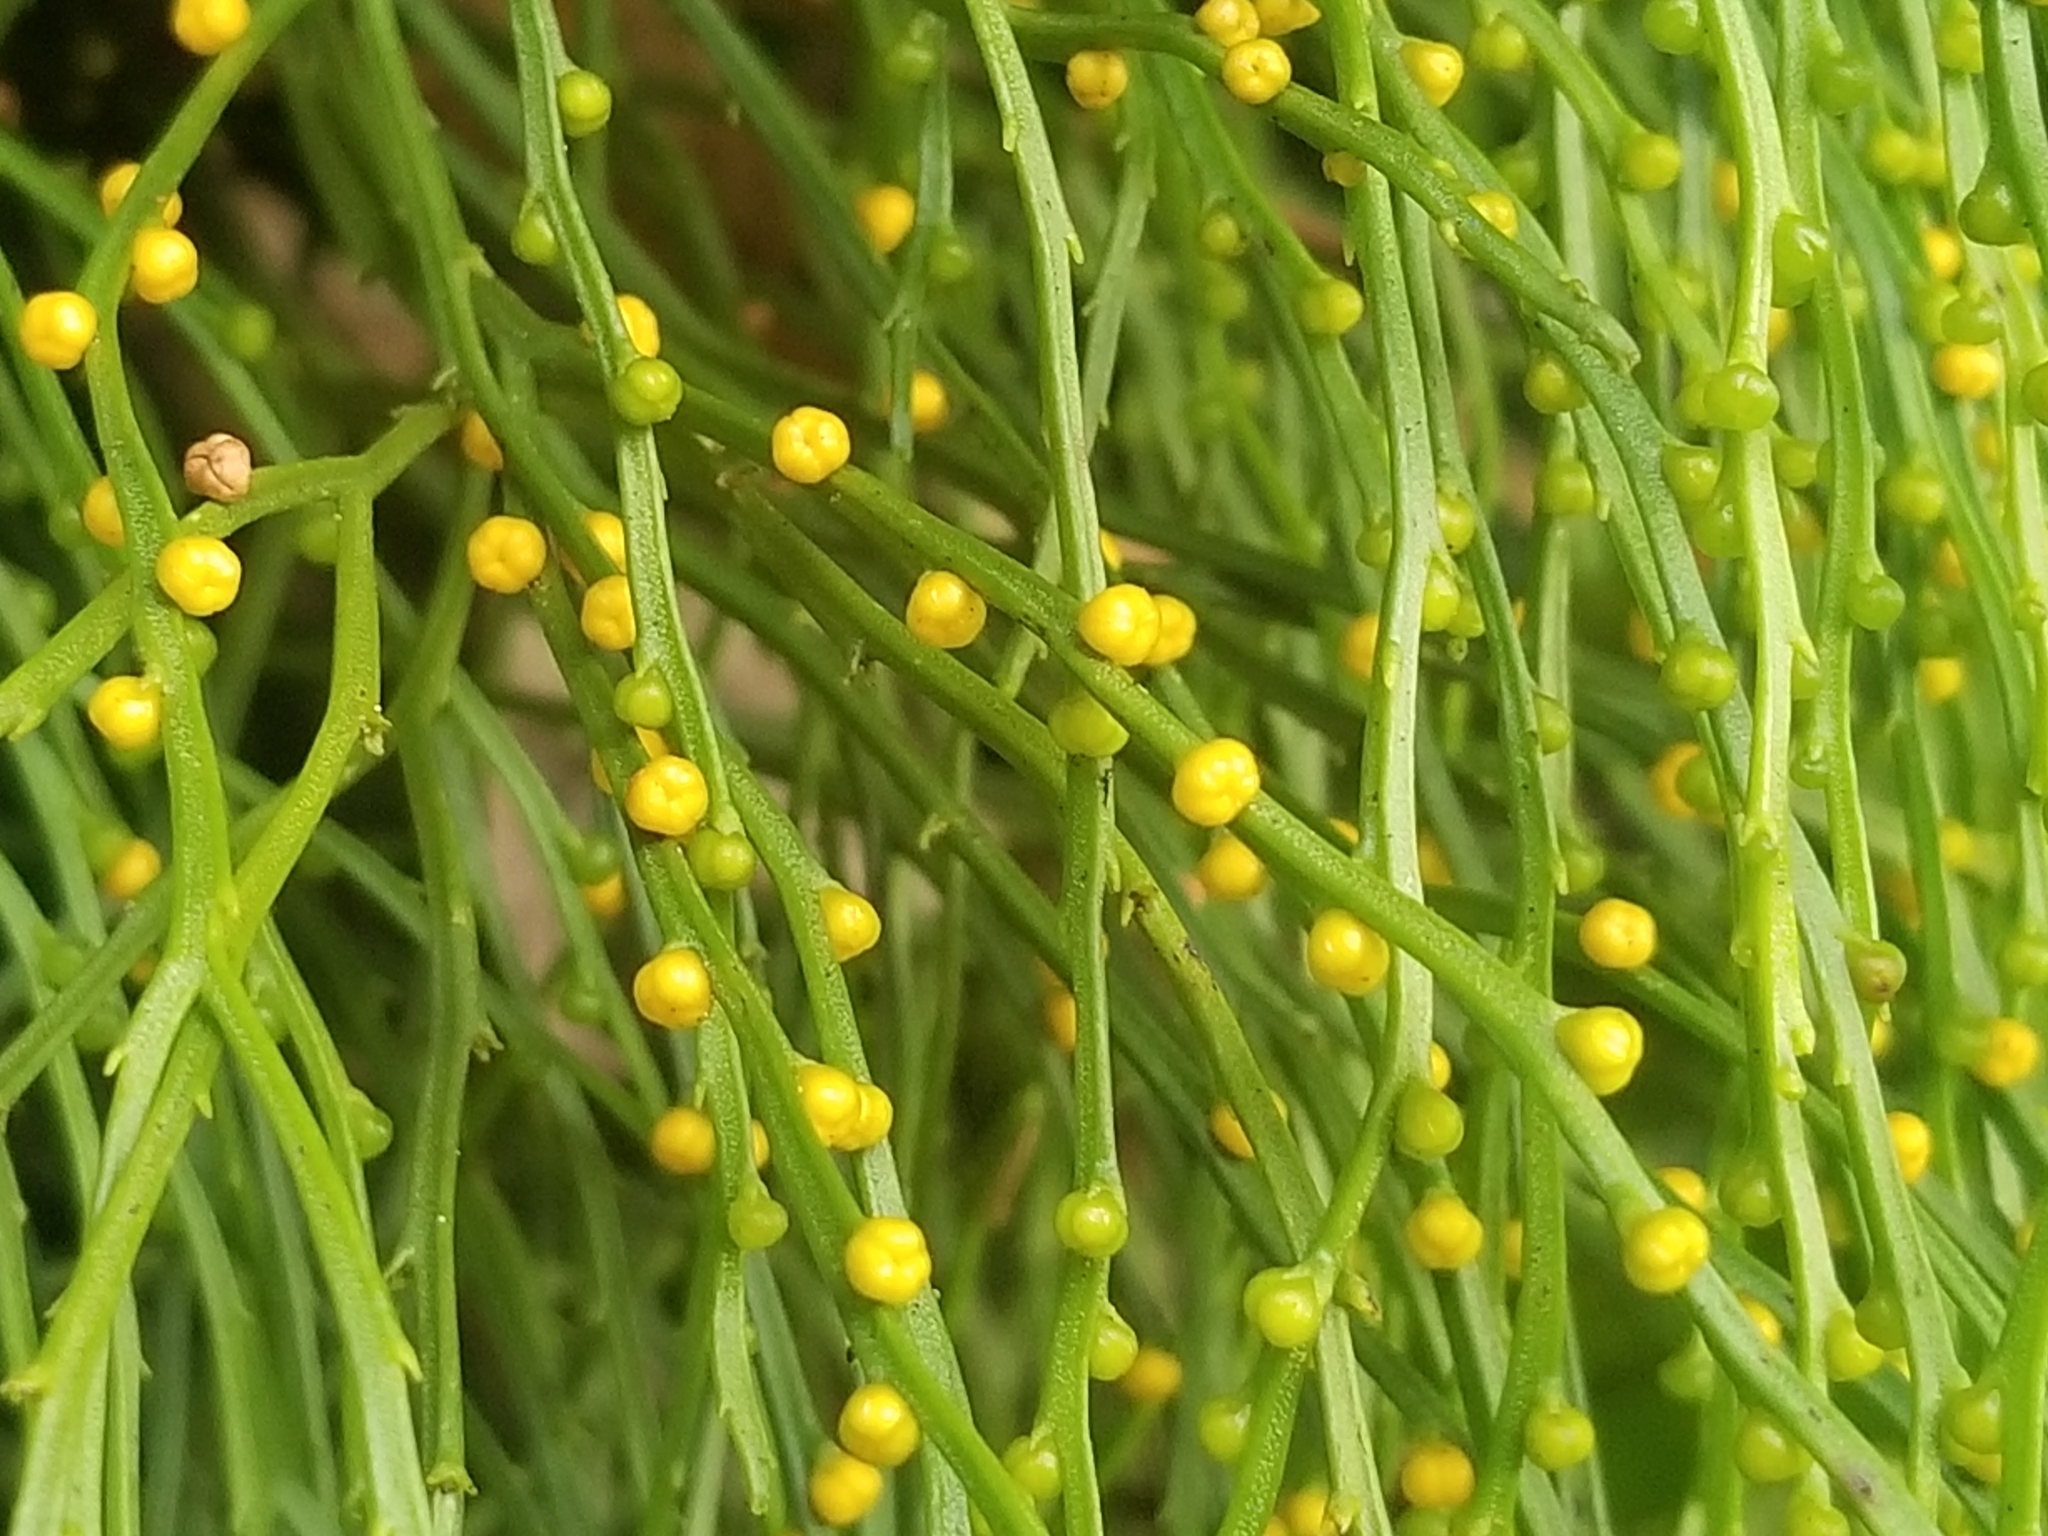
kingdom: Plantae
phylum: Tracheophyta
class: Polypodiopsida
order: Psilotales
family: Psilotaceae
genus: Psilotum
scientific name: Psilotum nudum
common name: Skeleton fork fern
